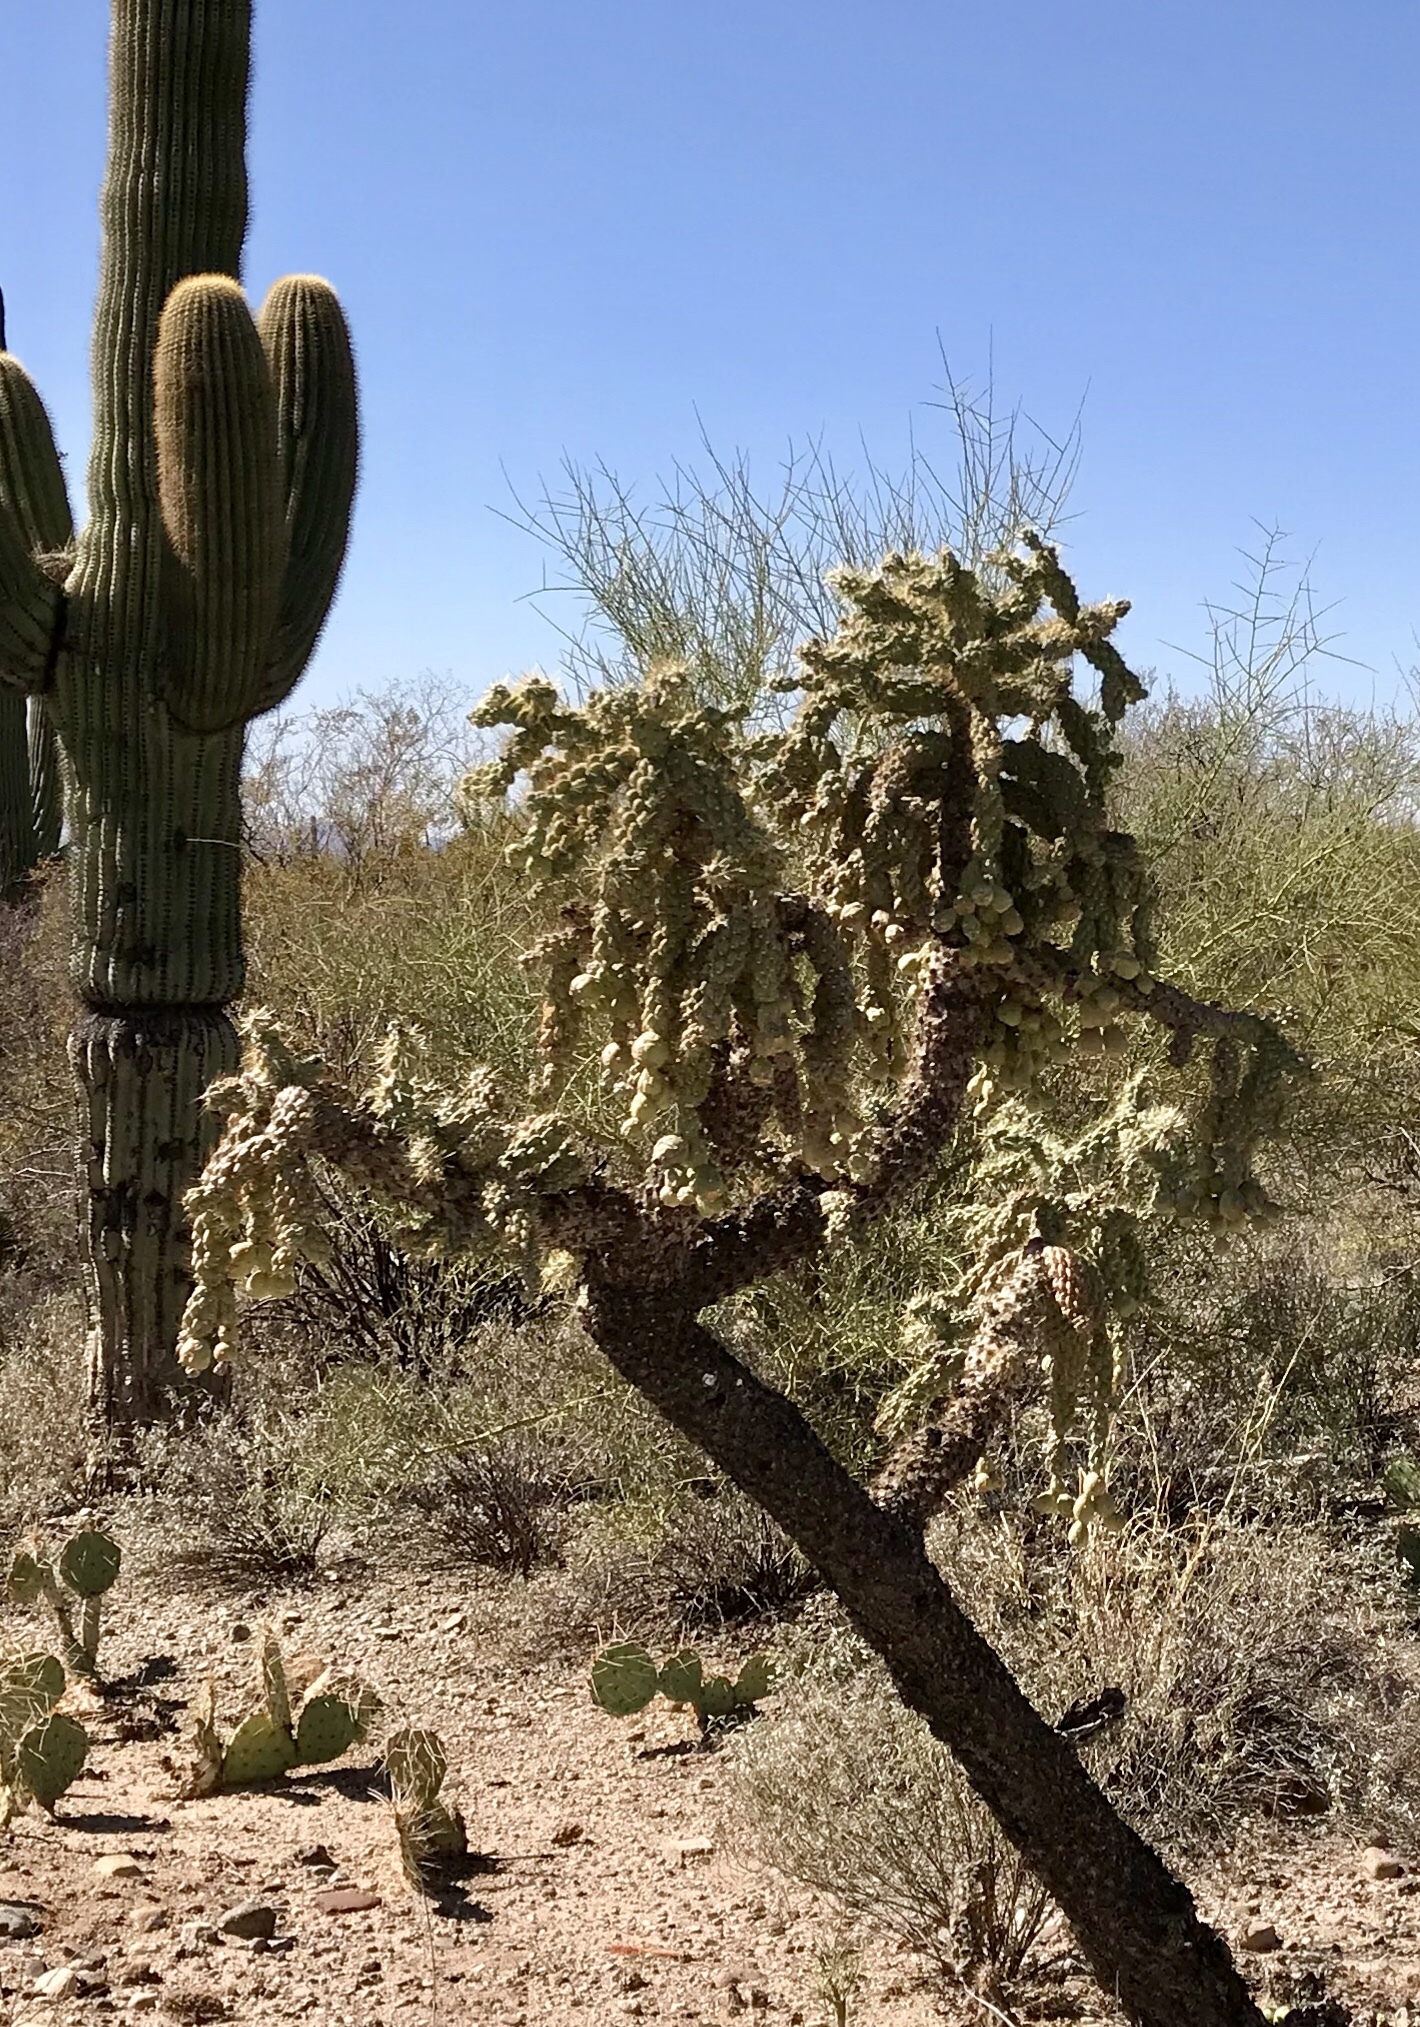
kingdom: Plantae
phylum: Tracheophyta
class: Magnoliopsida
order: Caryophyllales
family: Cactaceae
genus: Cylindropuntia
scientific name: Cylindropuntia fulgida
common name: Jumping cholla
